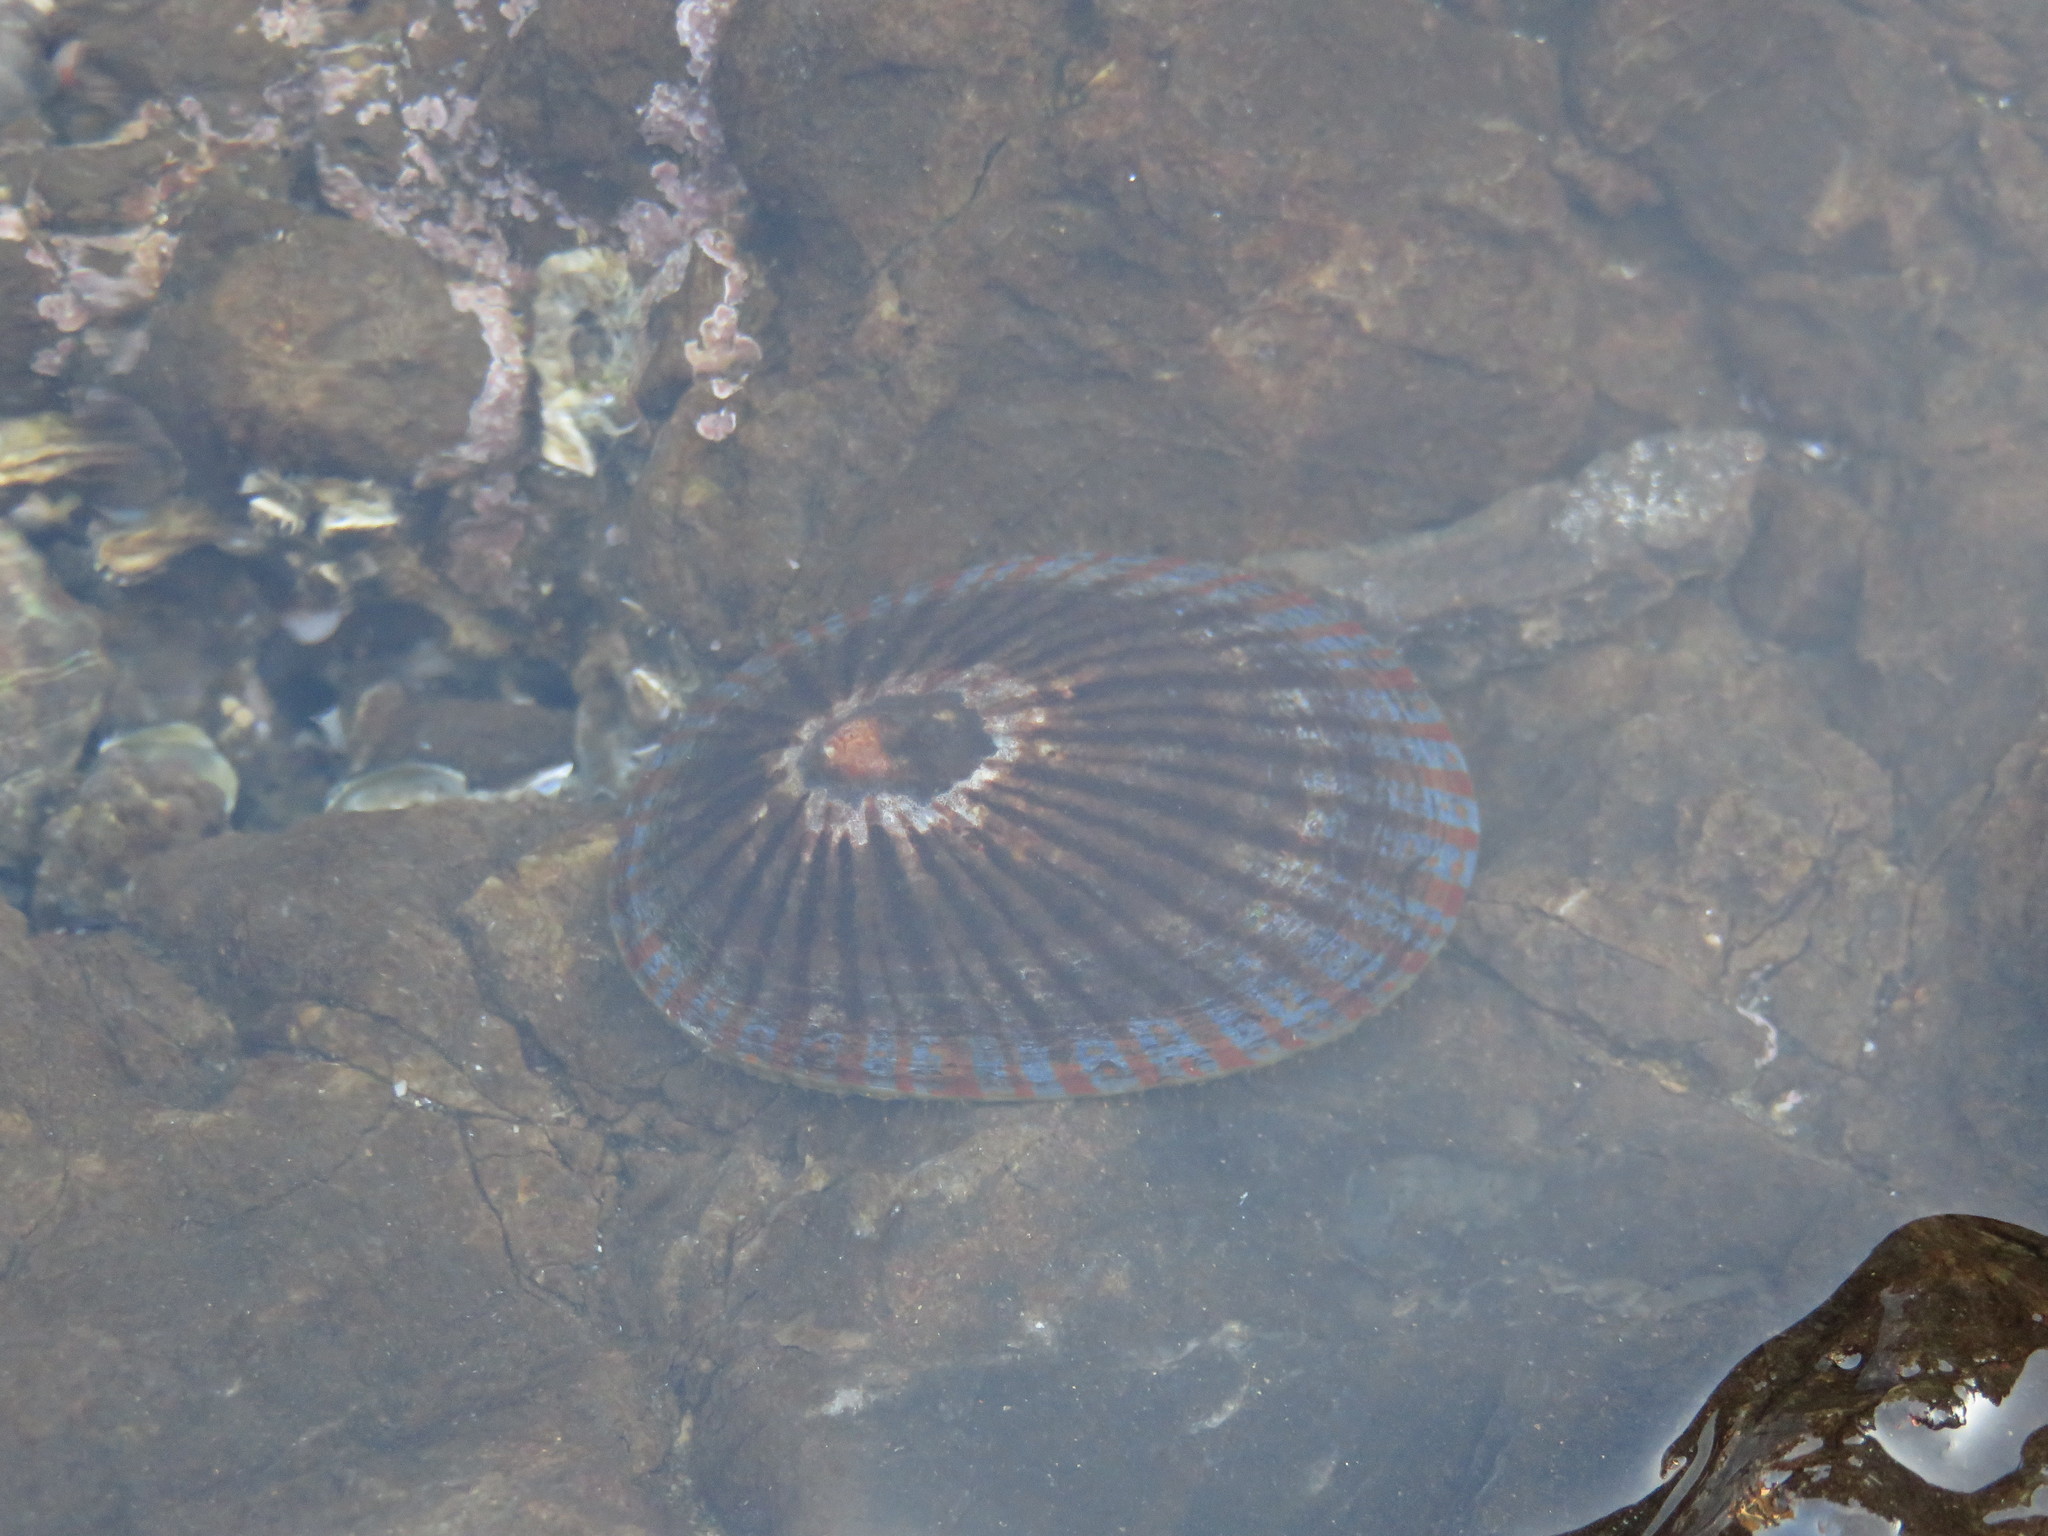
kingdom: Animalia
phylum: Mollusca
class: Gastropoda
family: Nacellidae
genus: Cellana
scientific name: Cellana nigrolineata
